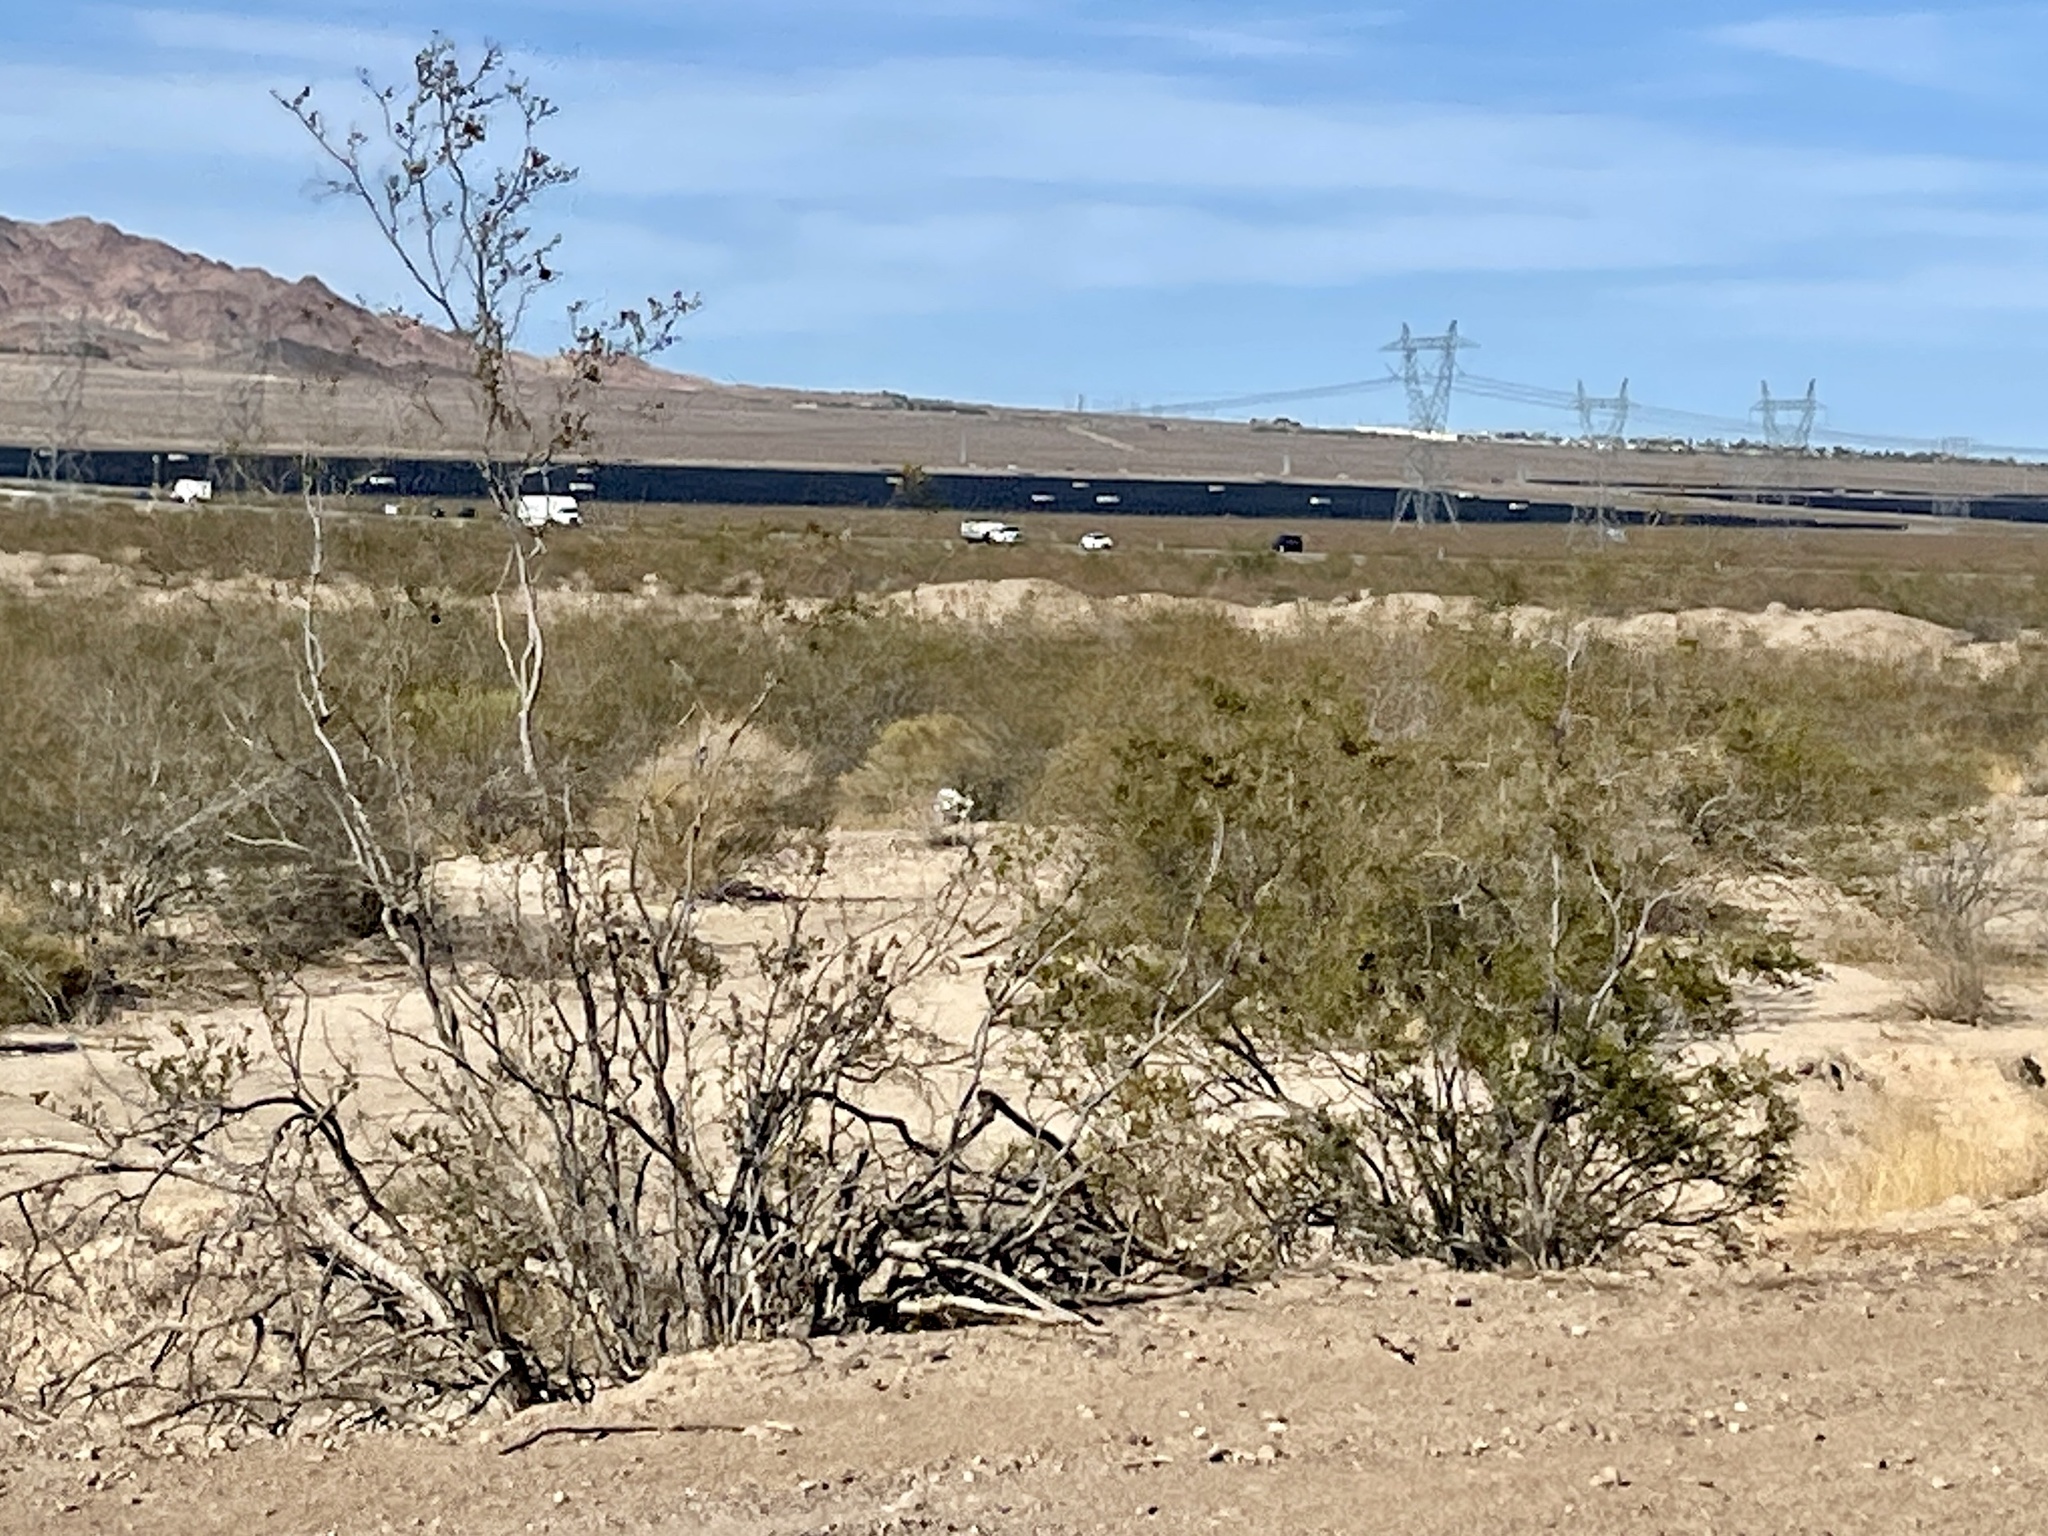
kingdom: Plantae
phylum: Tracheophyta
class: Magnoliopsida
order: Zygophyllales
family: Zygophyllaceae
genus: Larrea
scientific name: Larrea tridentata
